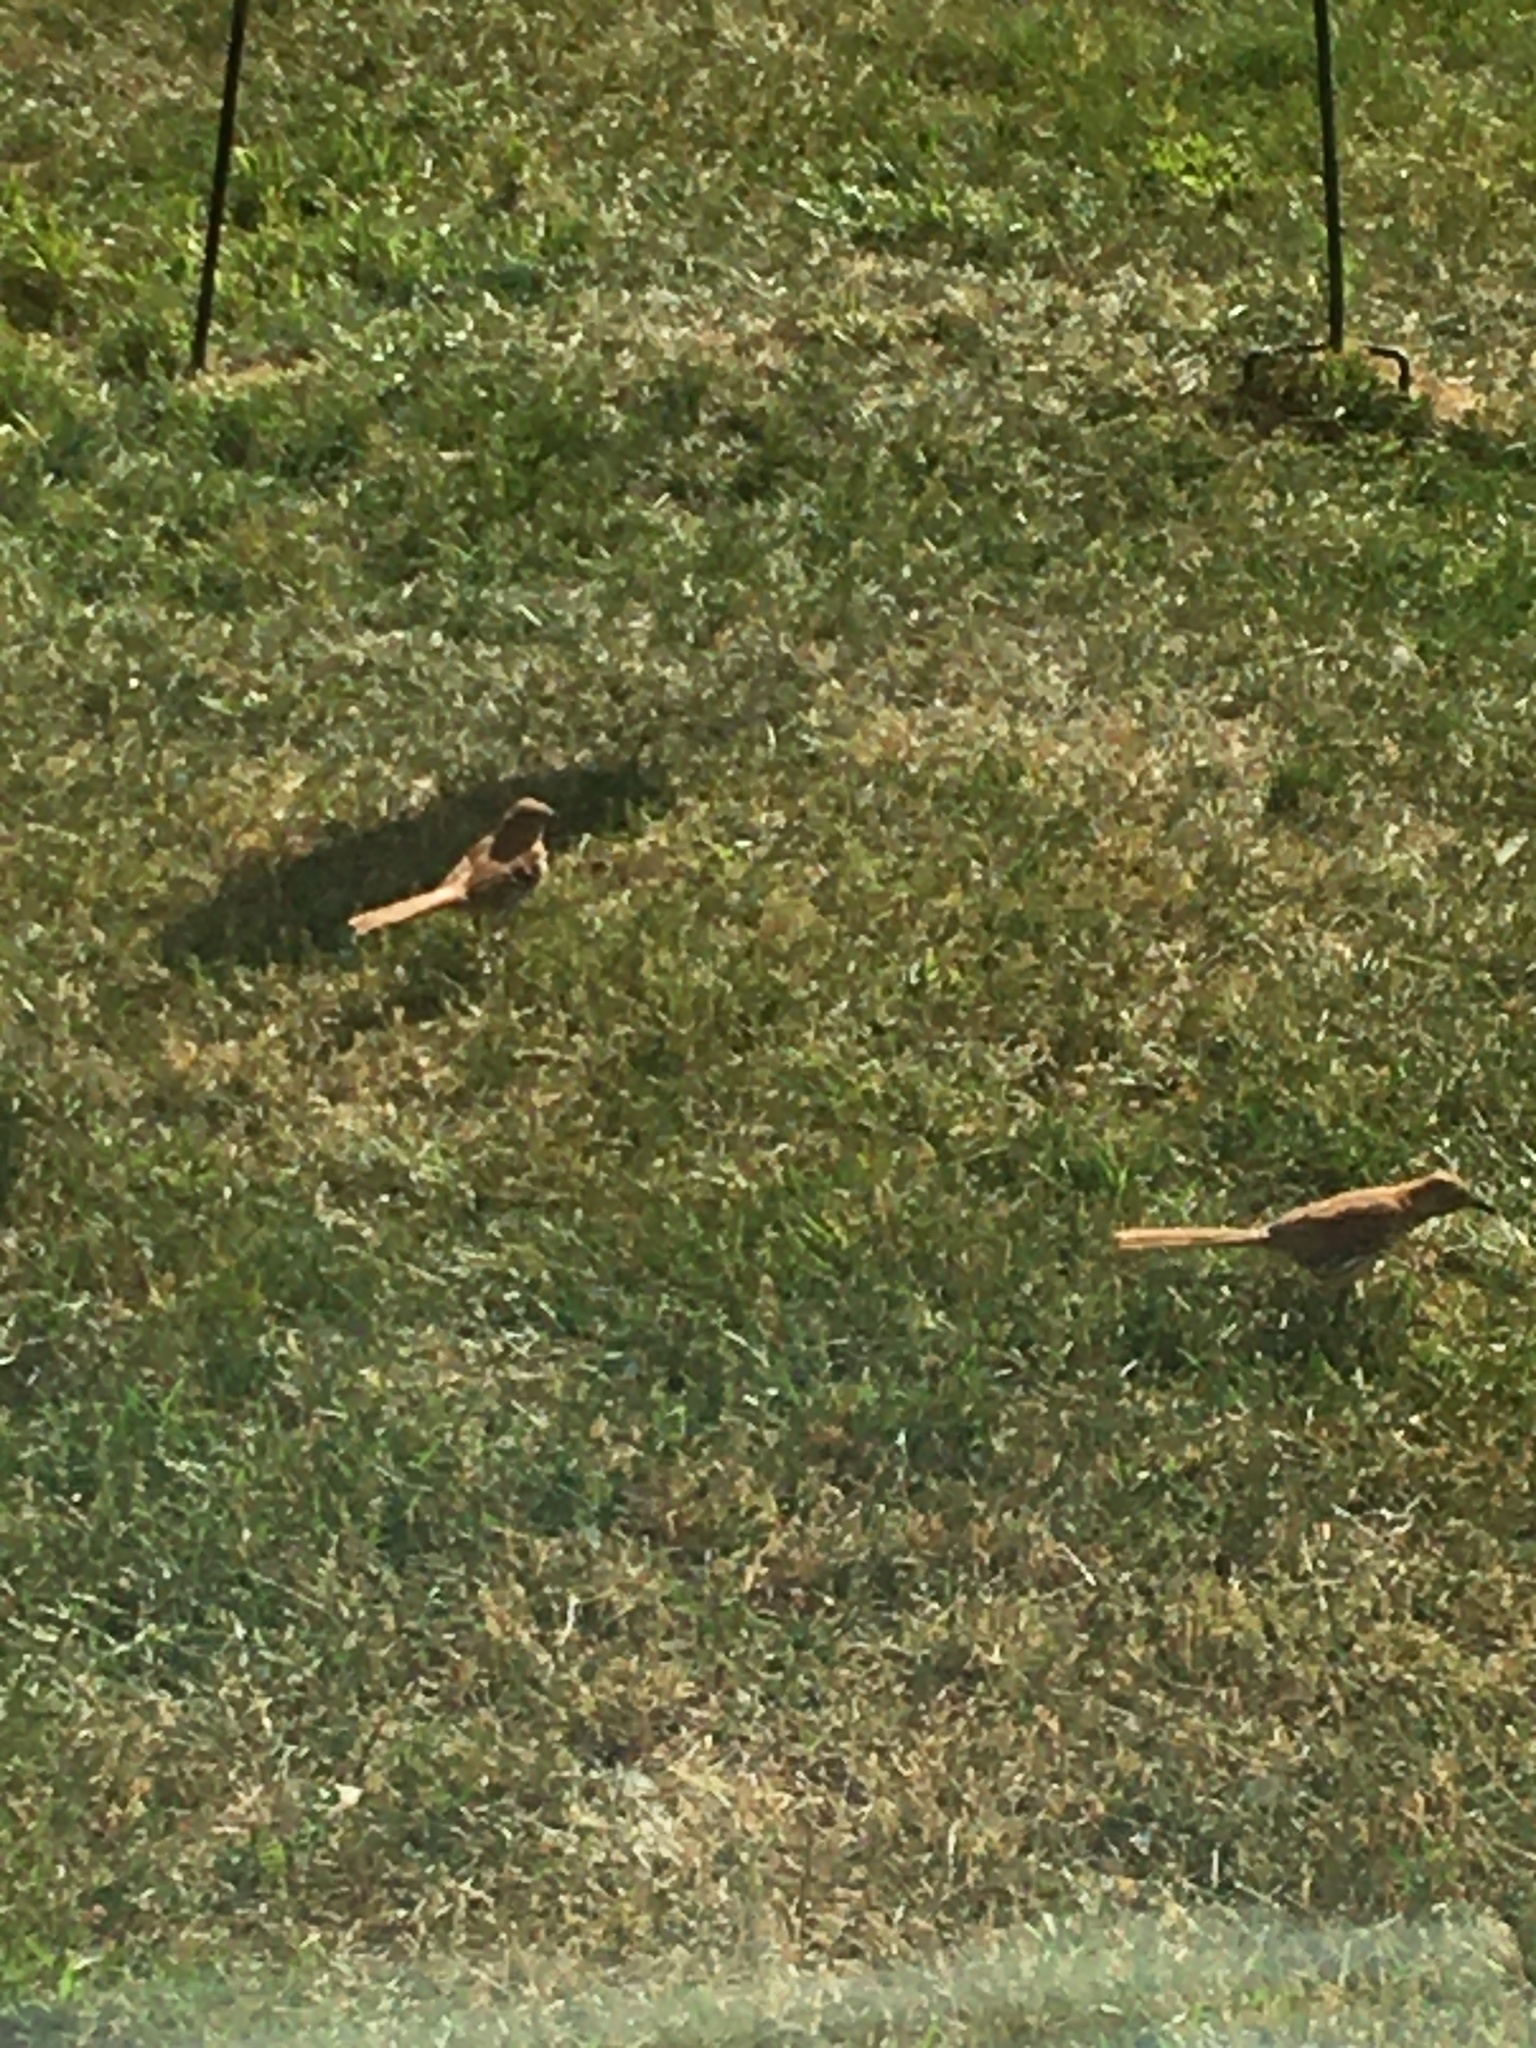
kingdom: Animalia
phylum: Chordata
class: Aves
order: Passeriformes
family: Mimidae
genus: Toxostoma
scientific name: Toxostoma rufum
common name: Brown thrasher
